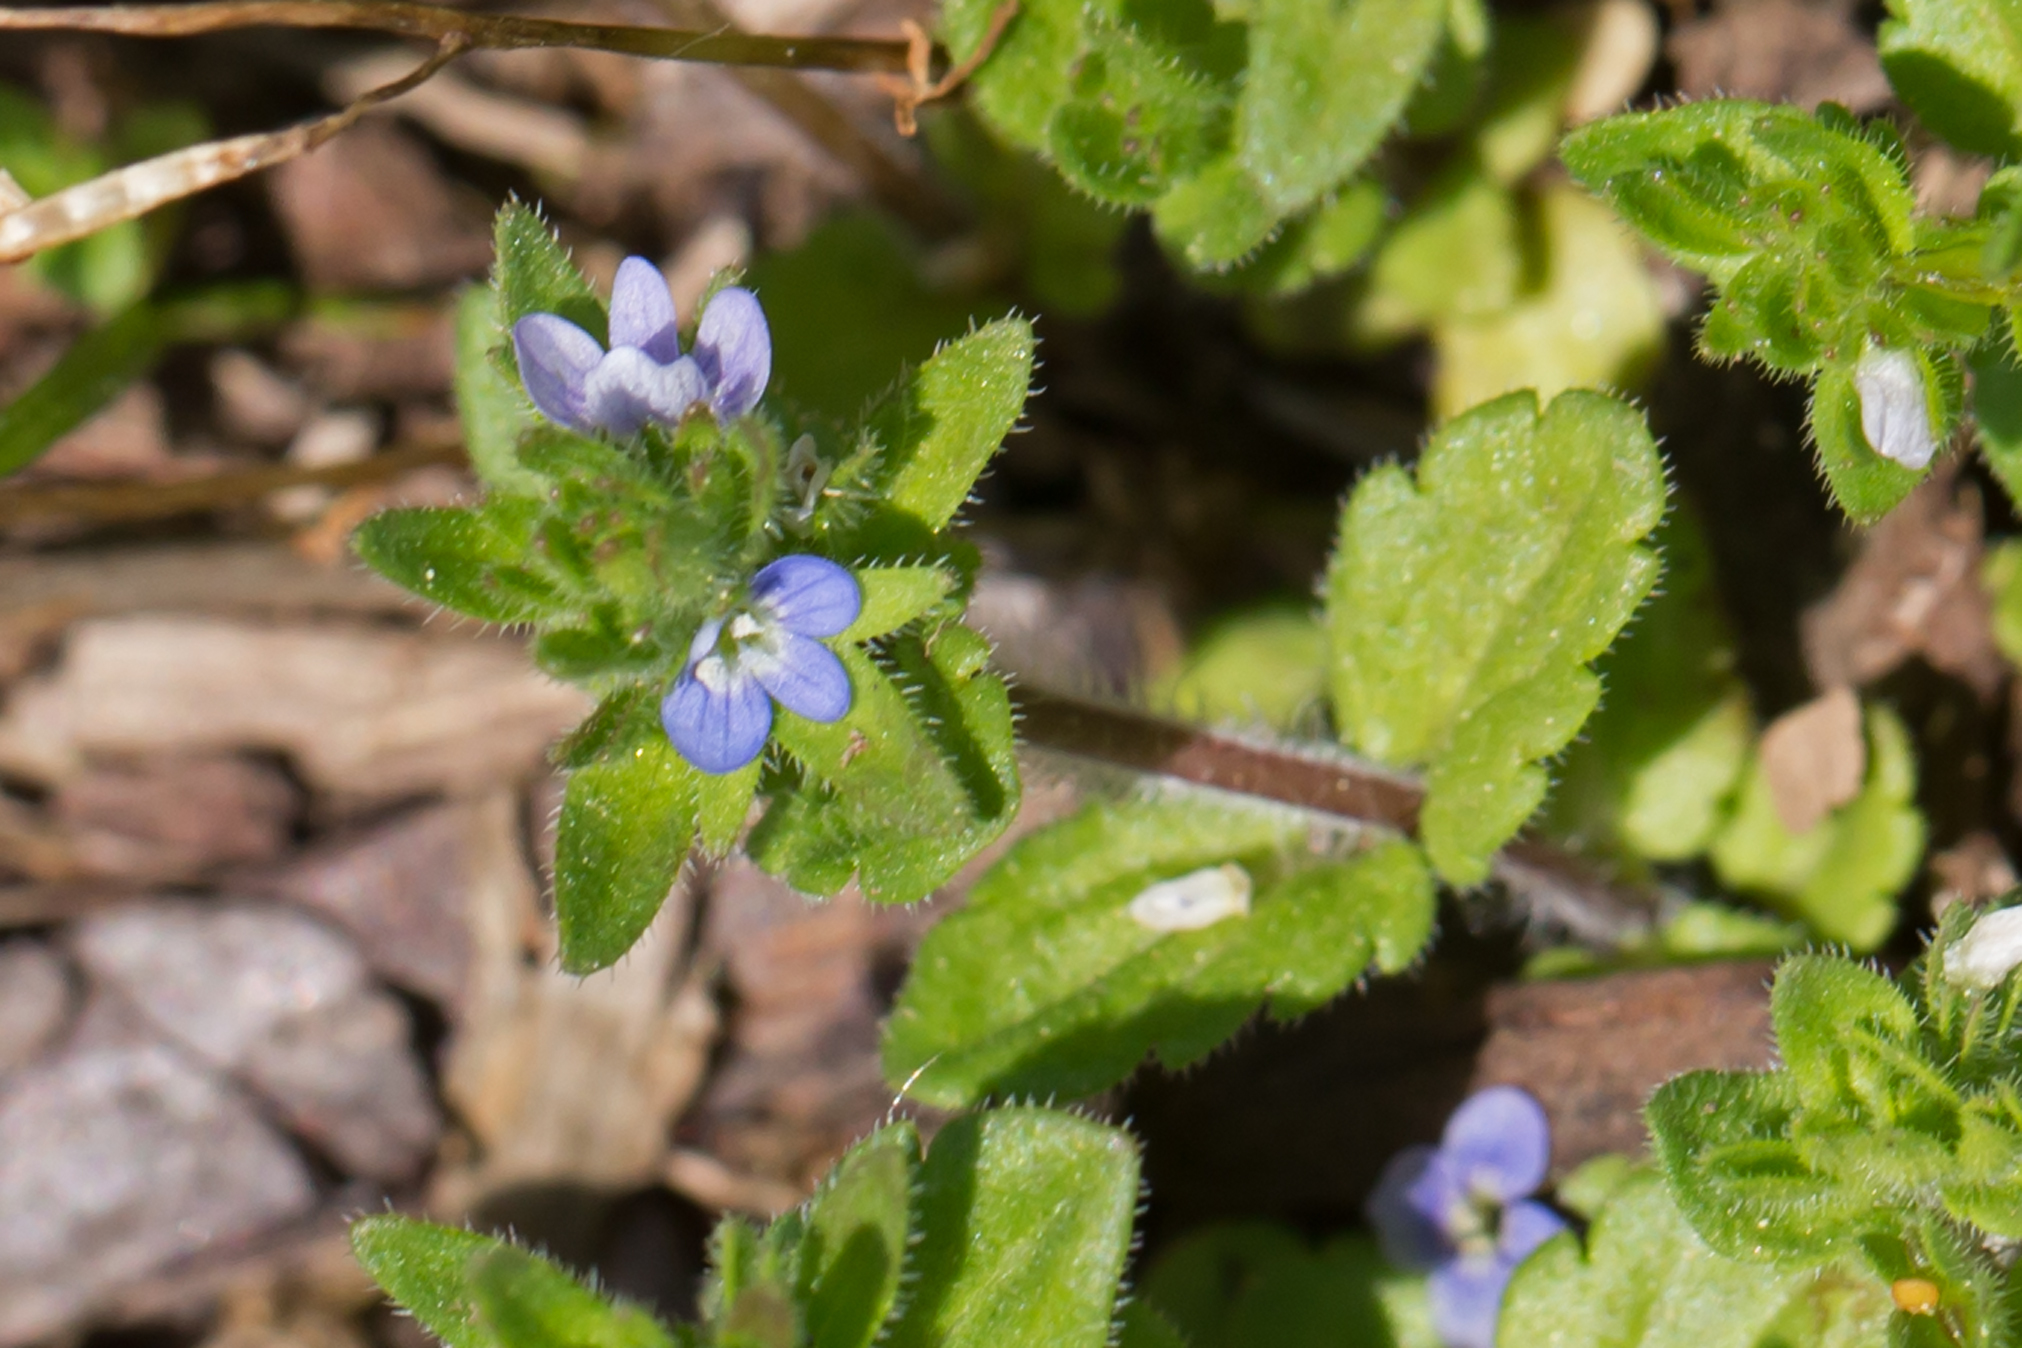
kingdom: Plantae
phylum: Tracheophyta
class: Magnoliopsida
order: Lamiales
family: Plantaginaceae
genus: Veronica
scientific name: Veronica arvensis
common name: Corn speedwell
